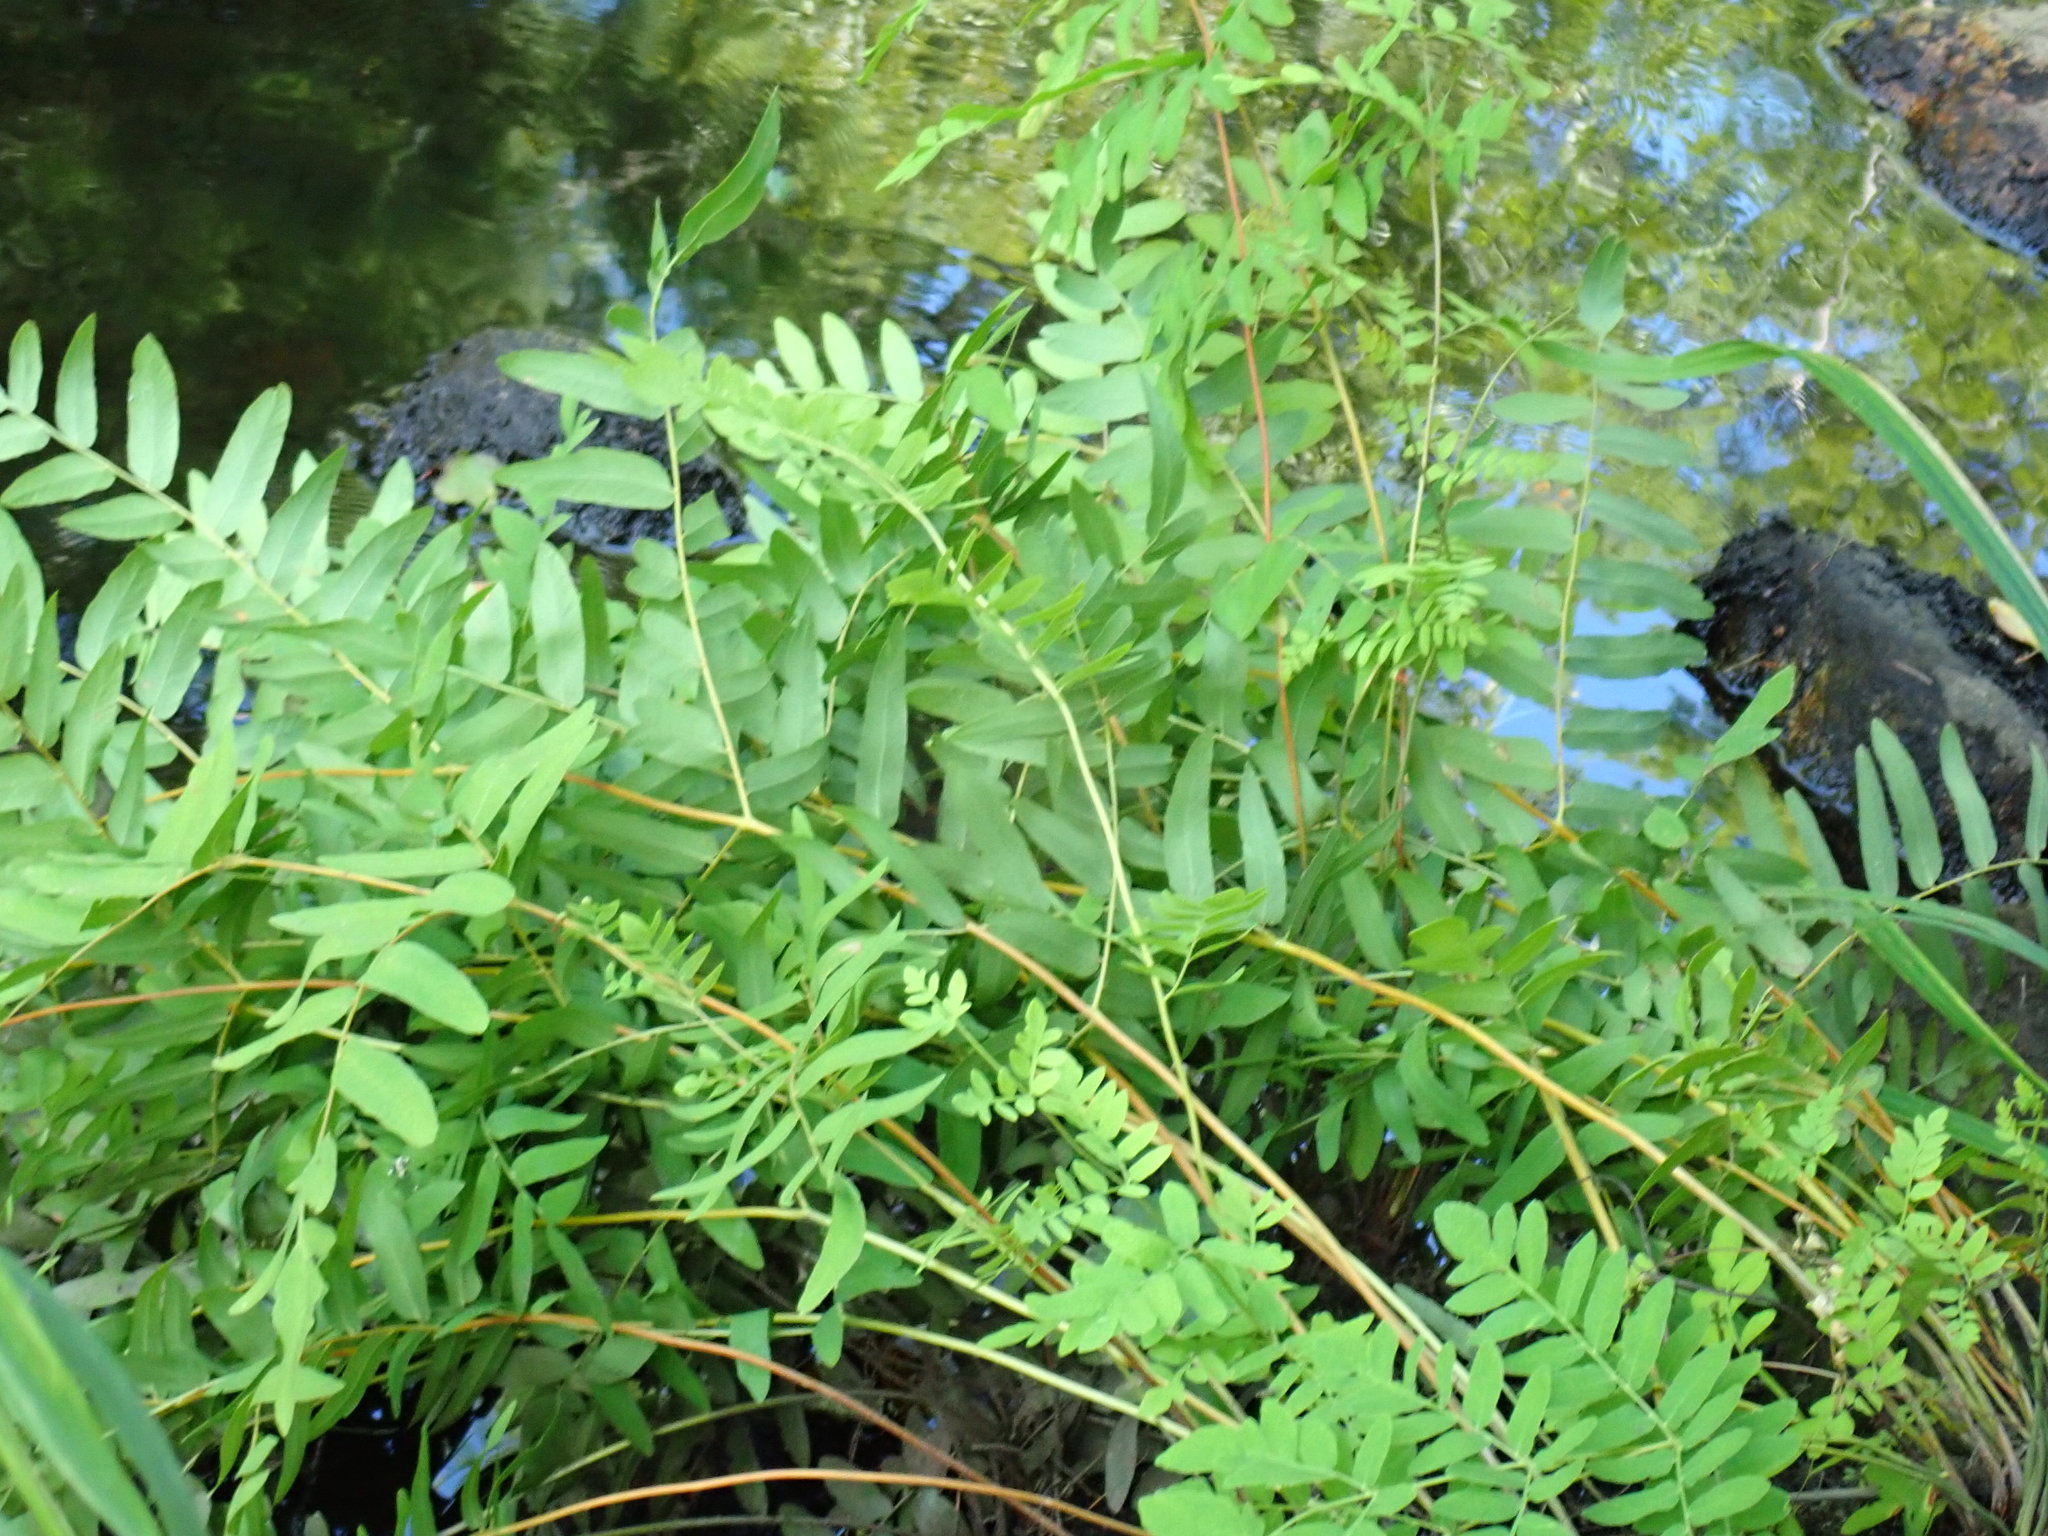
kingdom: Plantae
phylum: Tracheophyta
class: Polypodiopsida
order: Osmundales
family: Osmundaceae
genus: Osmunda
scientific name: Osmunda spectabilis
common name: American royal fern
